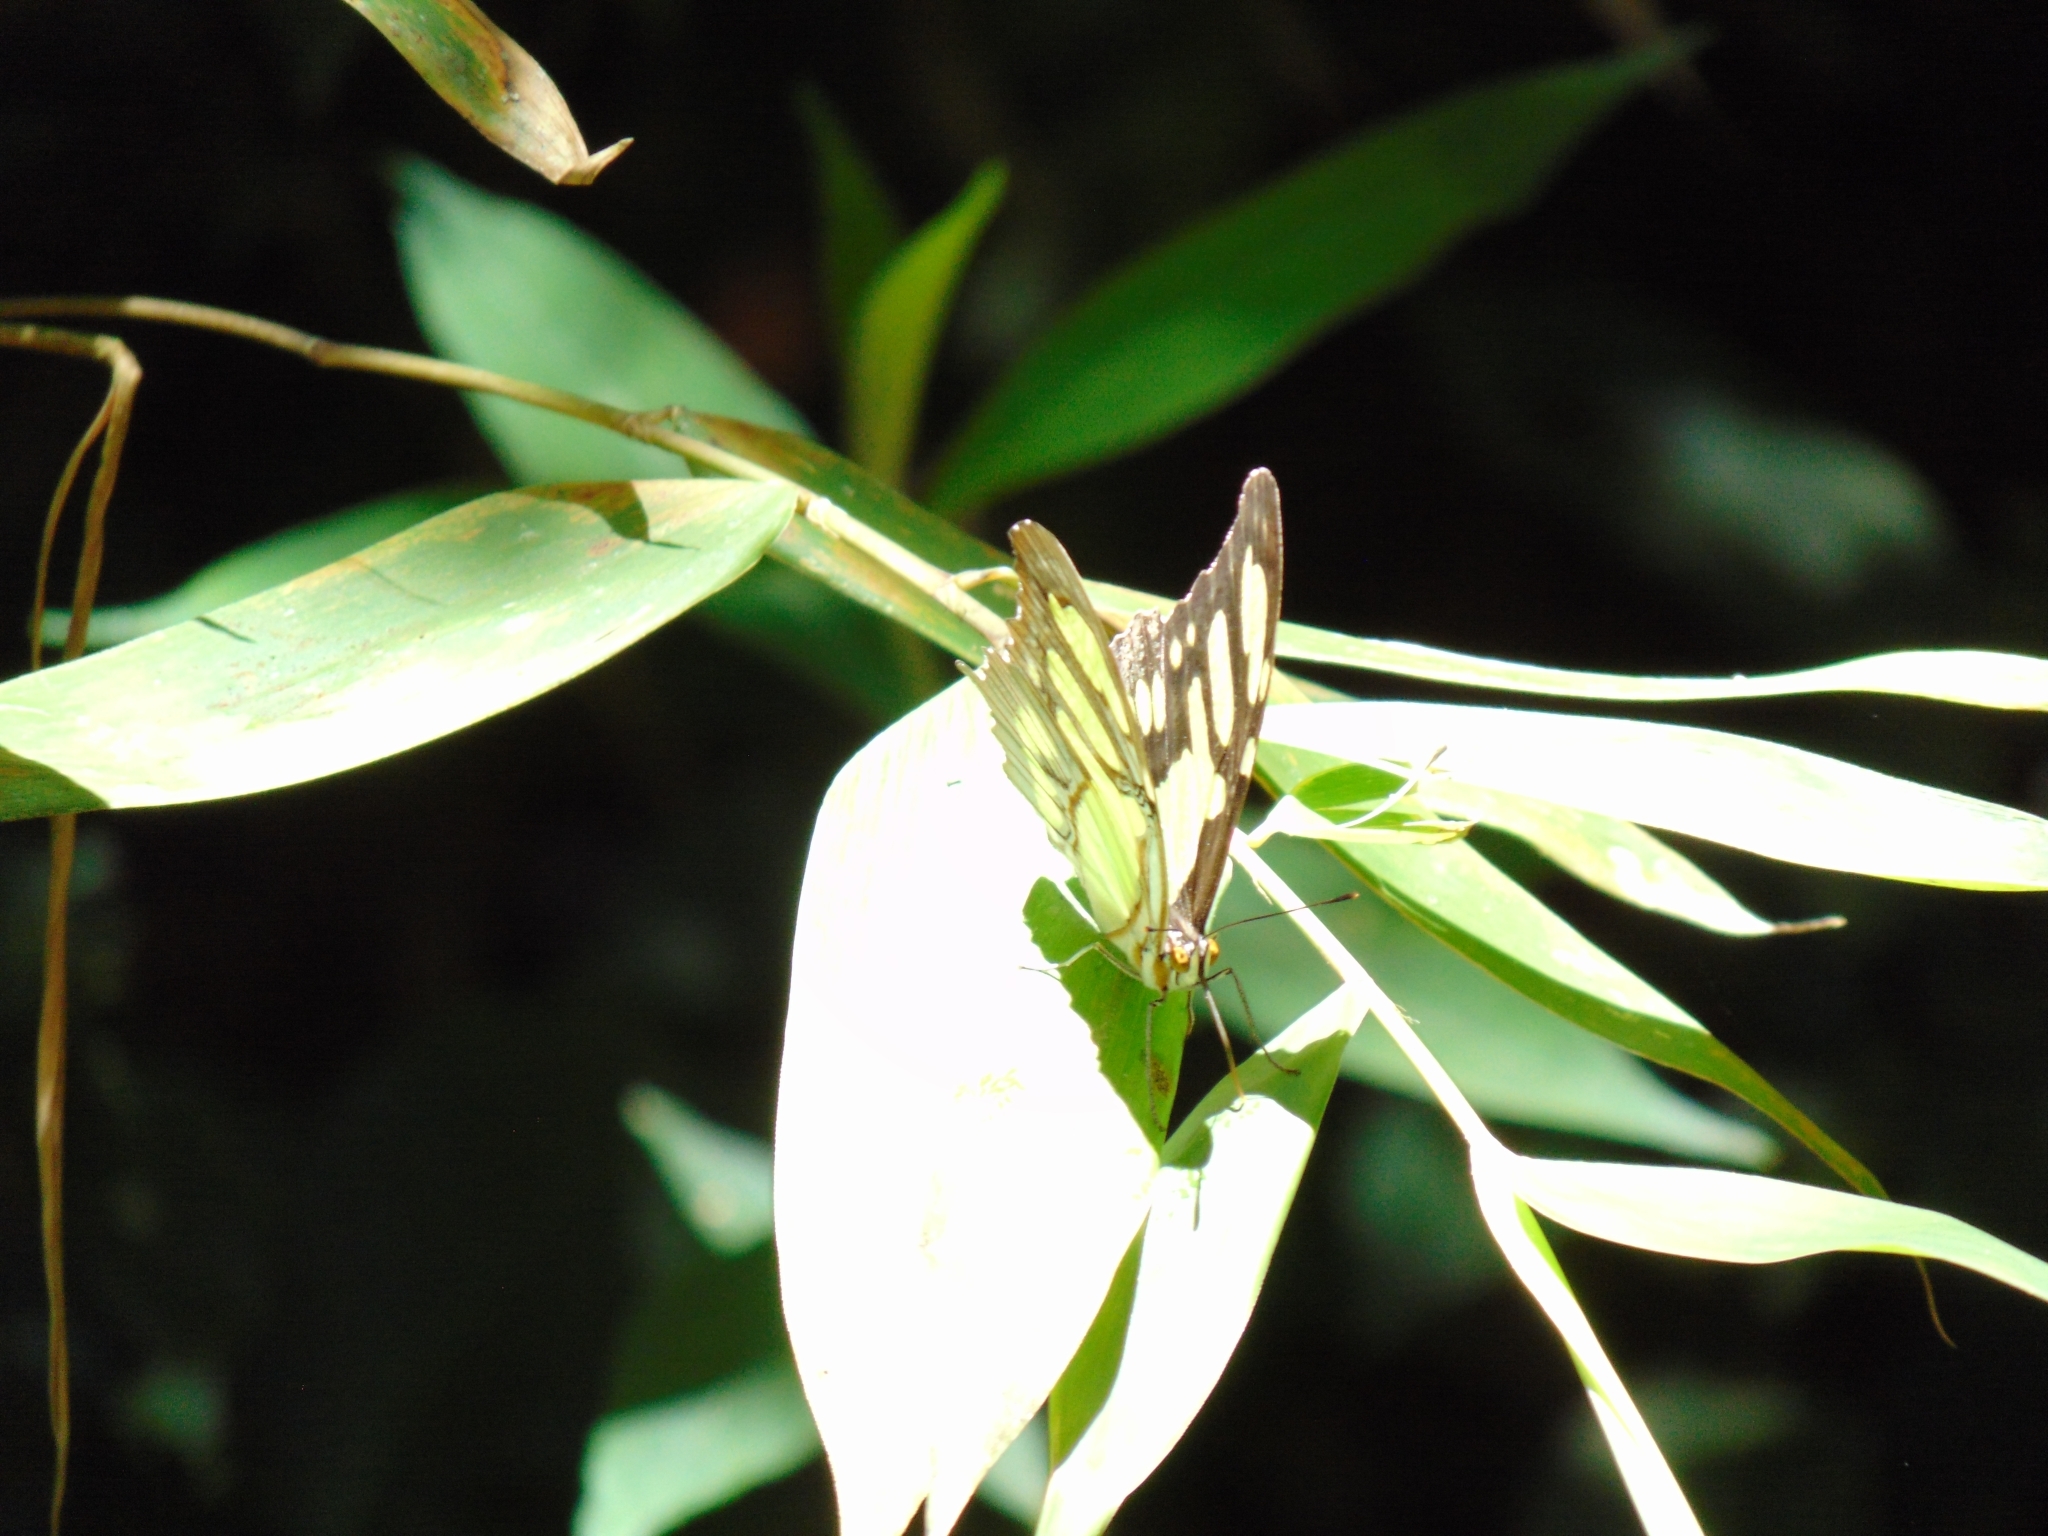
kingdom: Animalia
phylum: Arthropoda
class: Insecta
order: Lepidoptera
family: Nymphalidae
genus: Siproeta
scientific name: Siproeta stelenes
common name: Malachite
